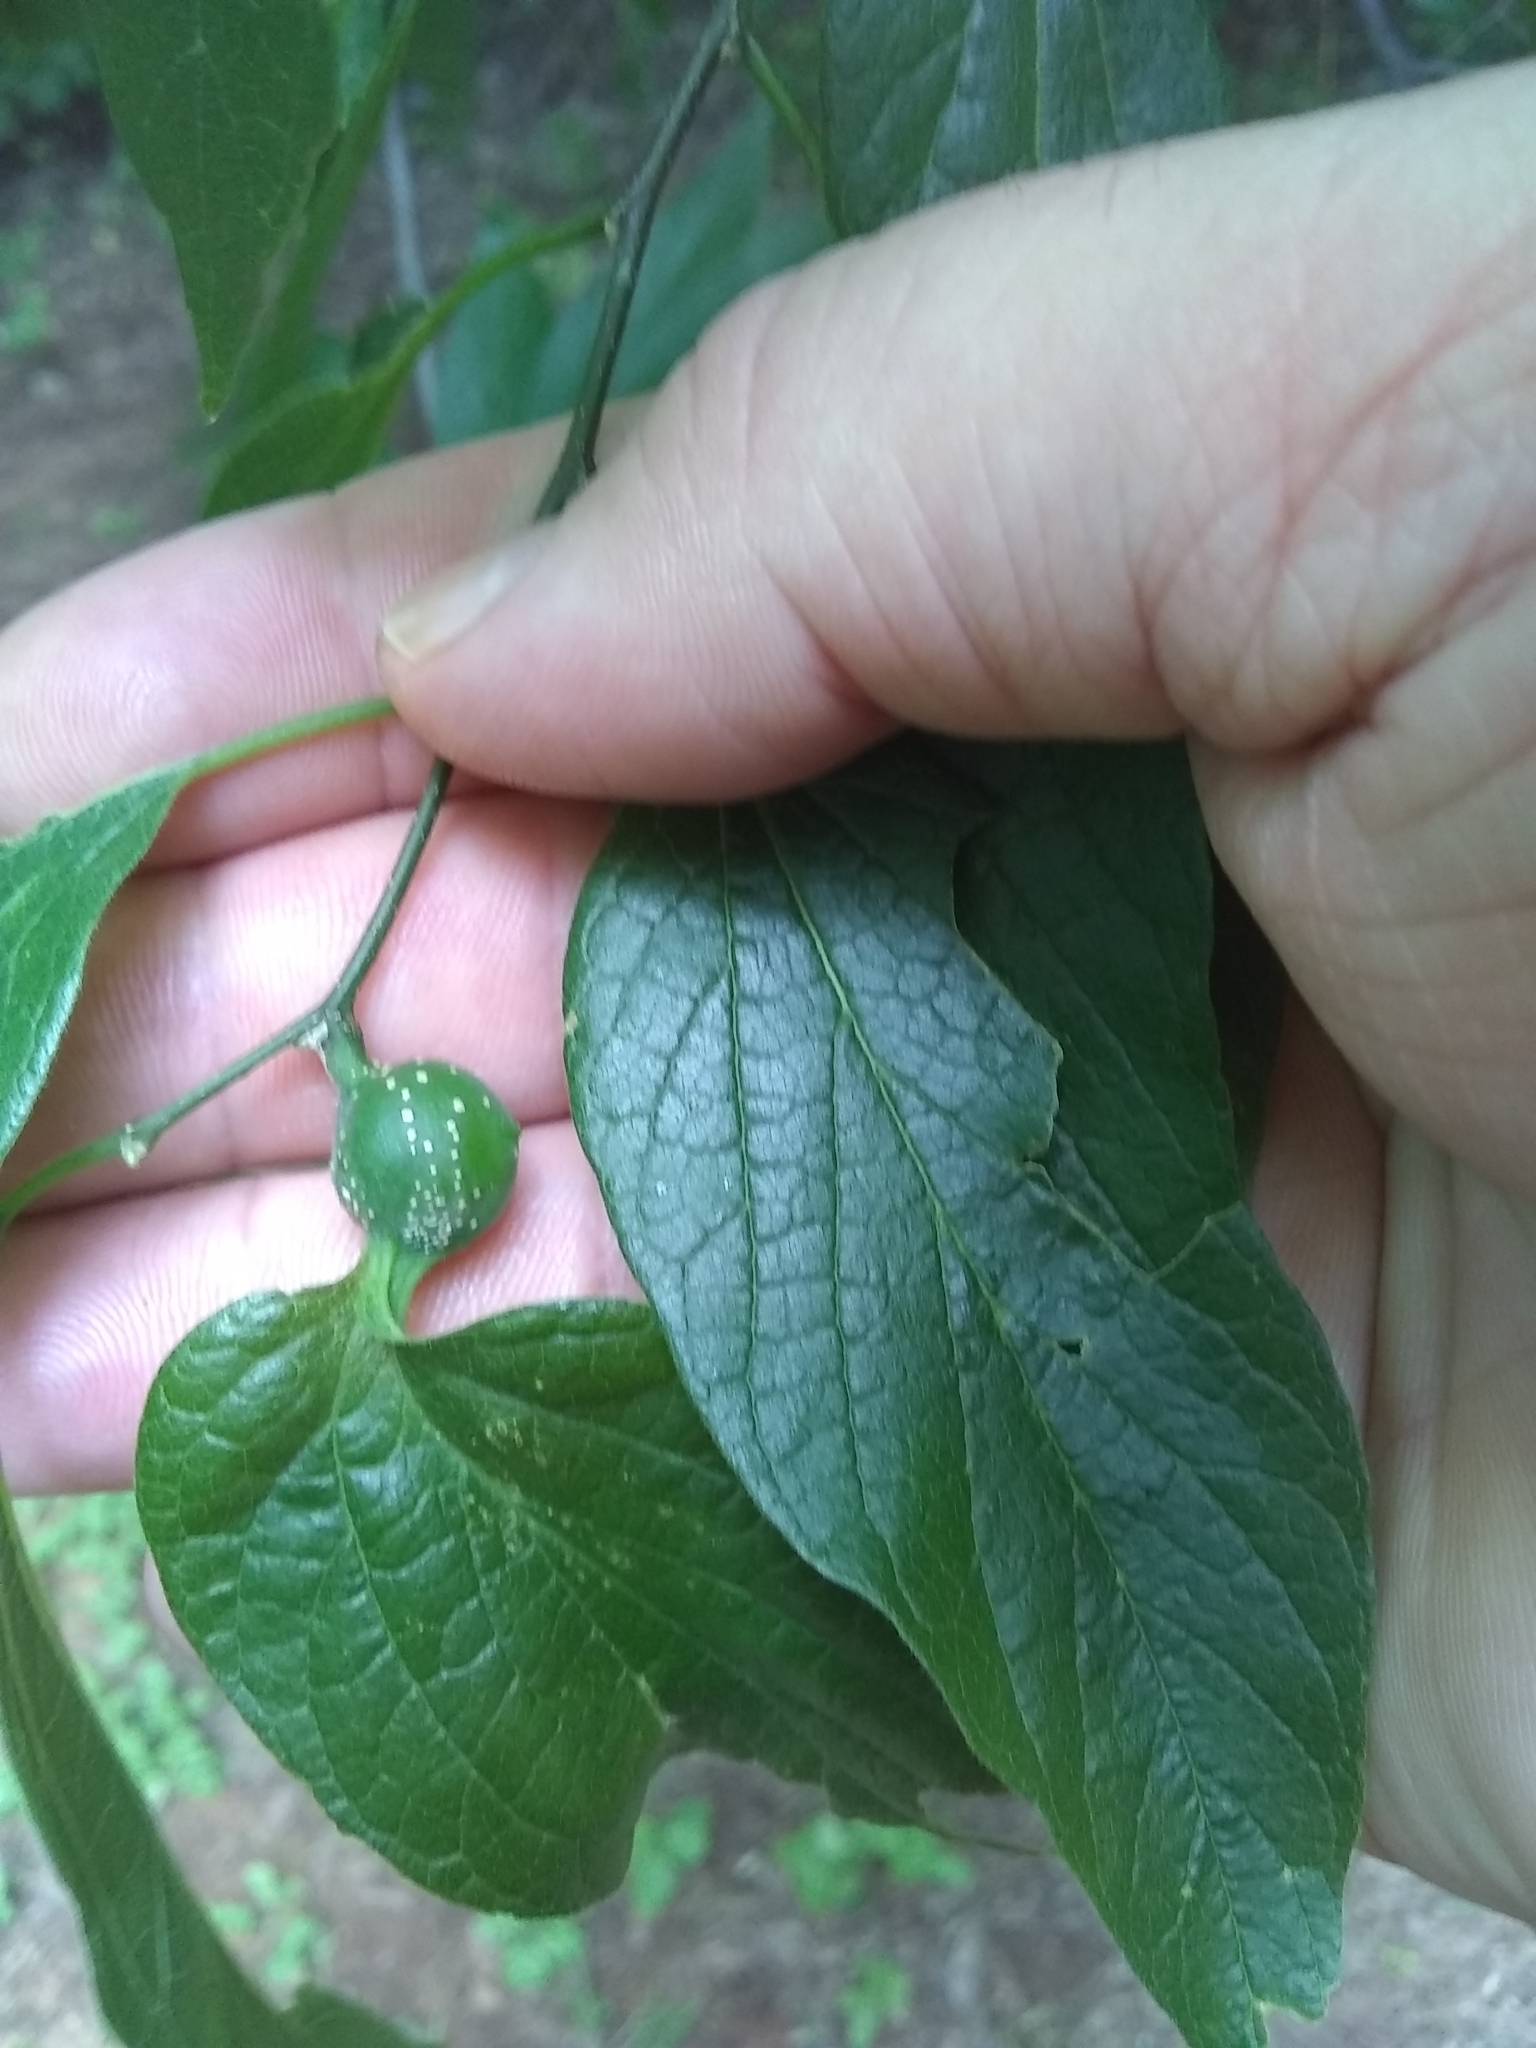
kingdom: Animalia
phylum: Arthropoda
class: Insecta
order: Hemiptera
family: Aphalaridae
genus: Pachypsylla
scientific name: Pachypsylla venusta
